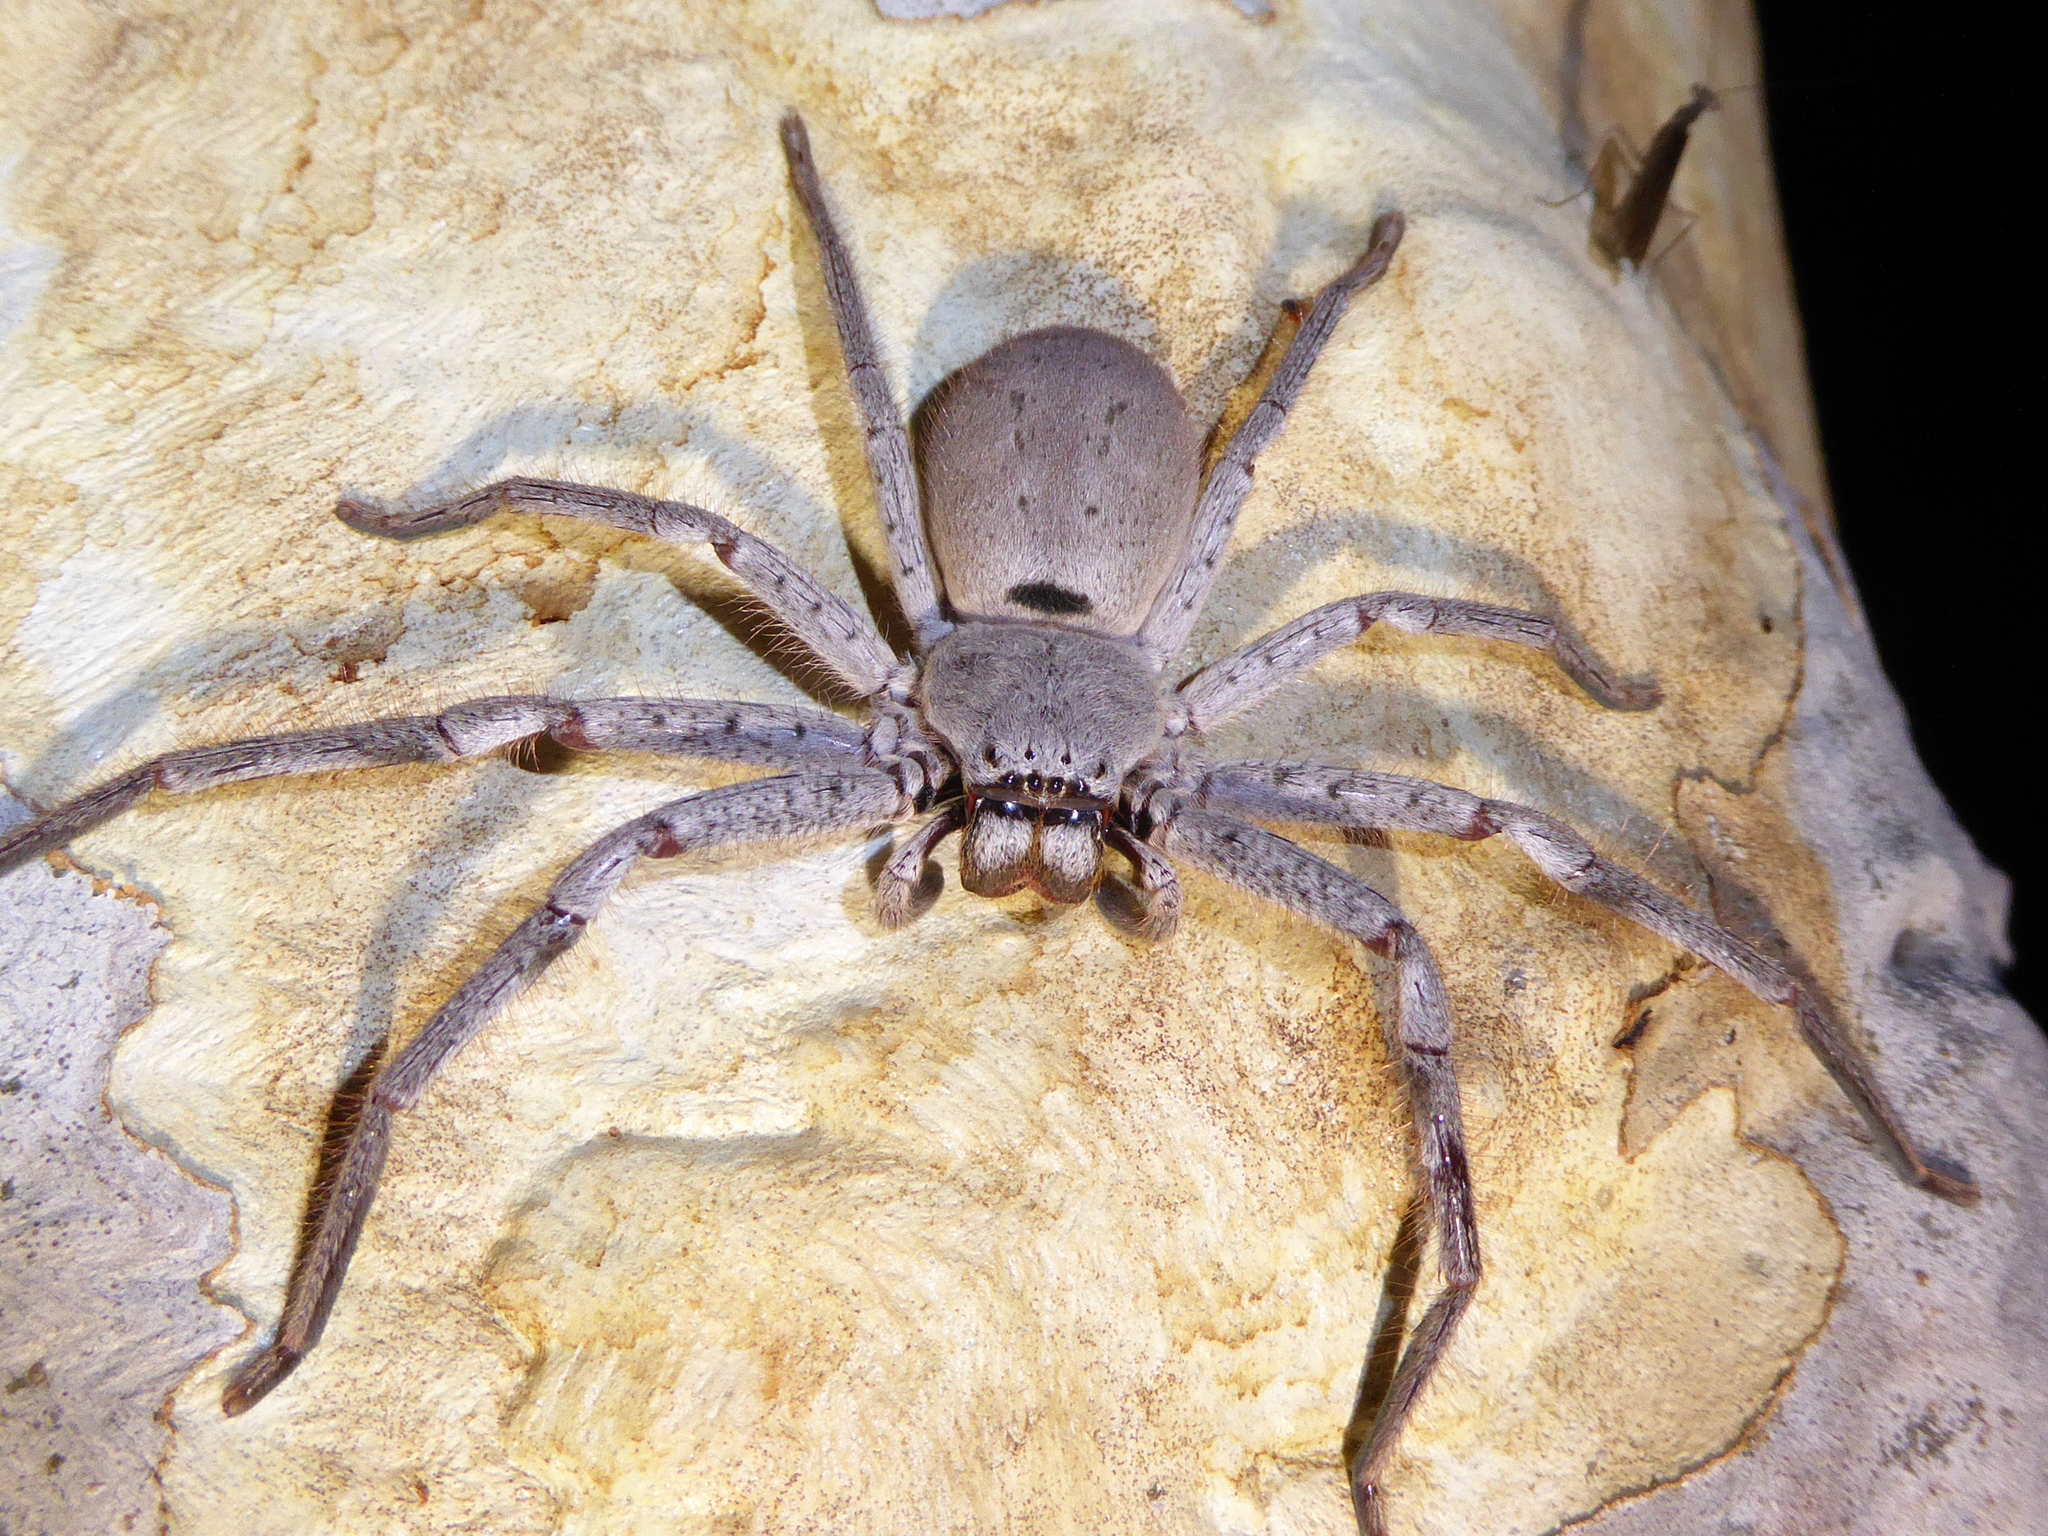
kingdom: Animalia
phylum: Arthropoda
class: Arachnida
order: Araneae
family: Sparassidae
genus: Isopeda
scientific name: Isopeda canberrana
